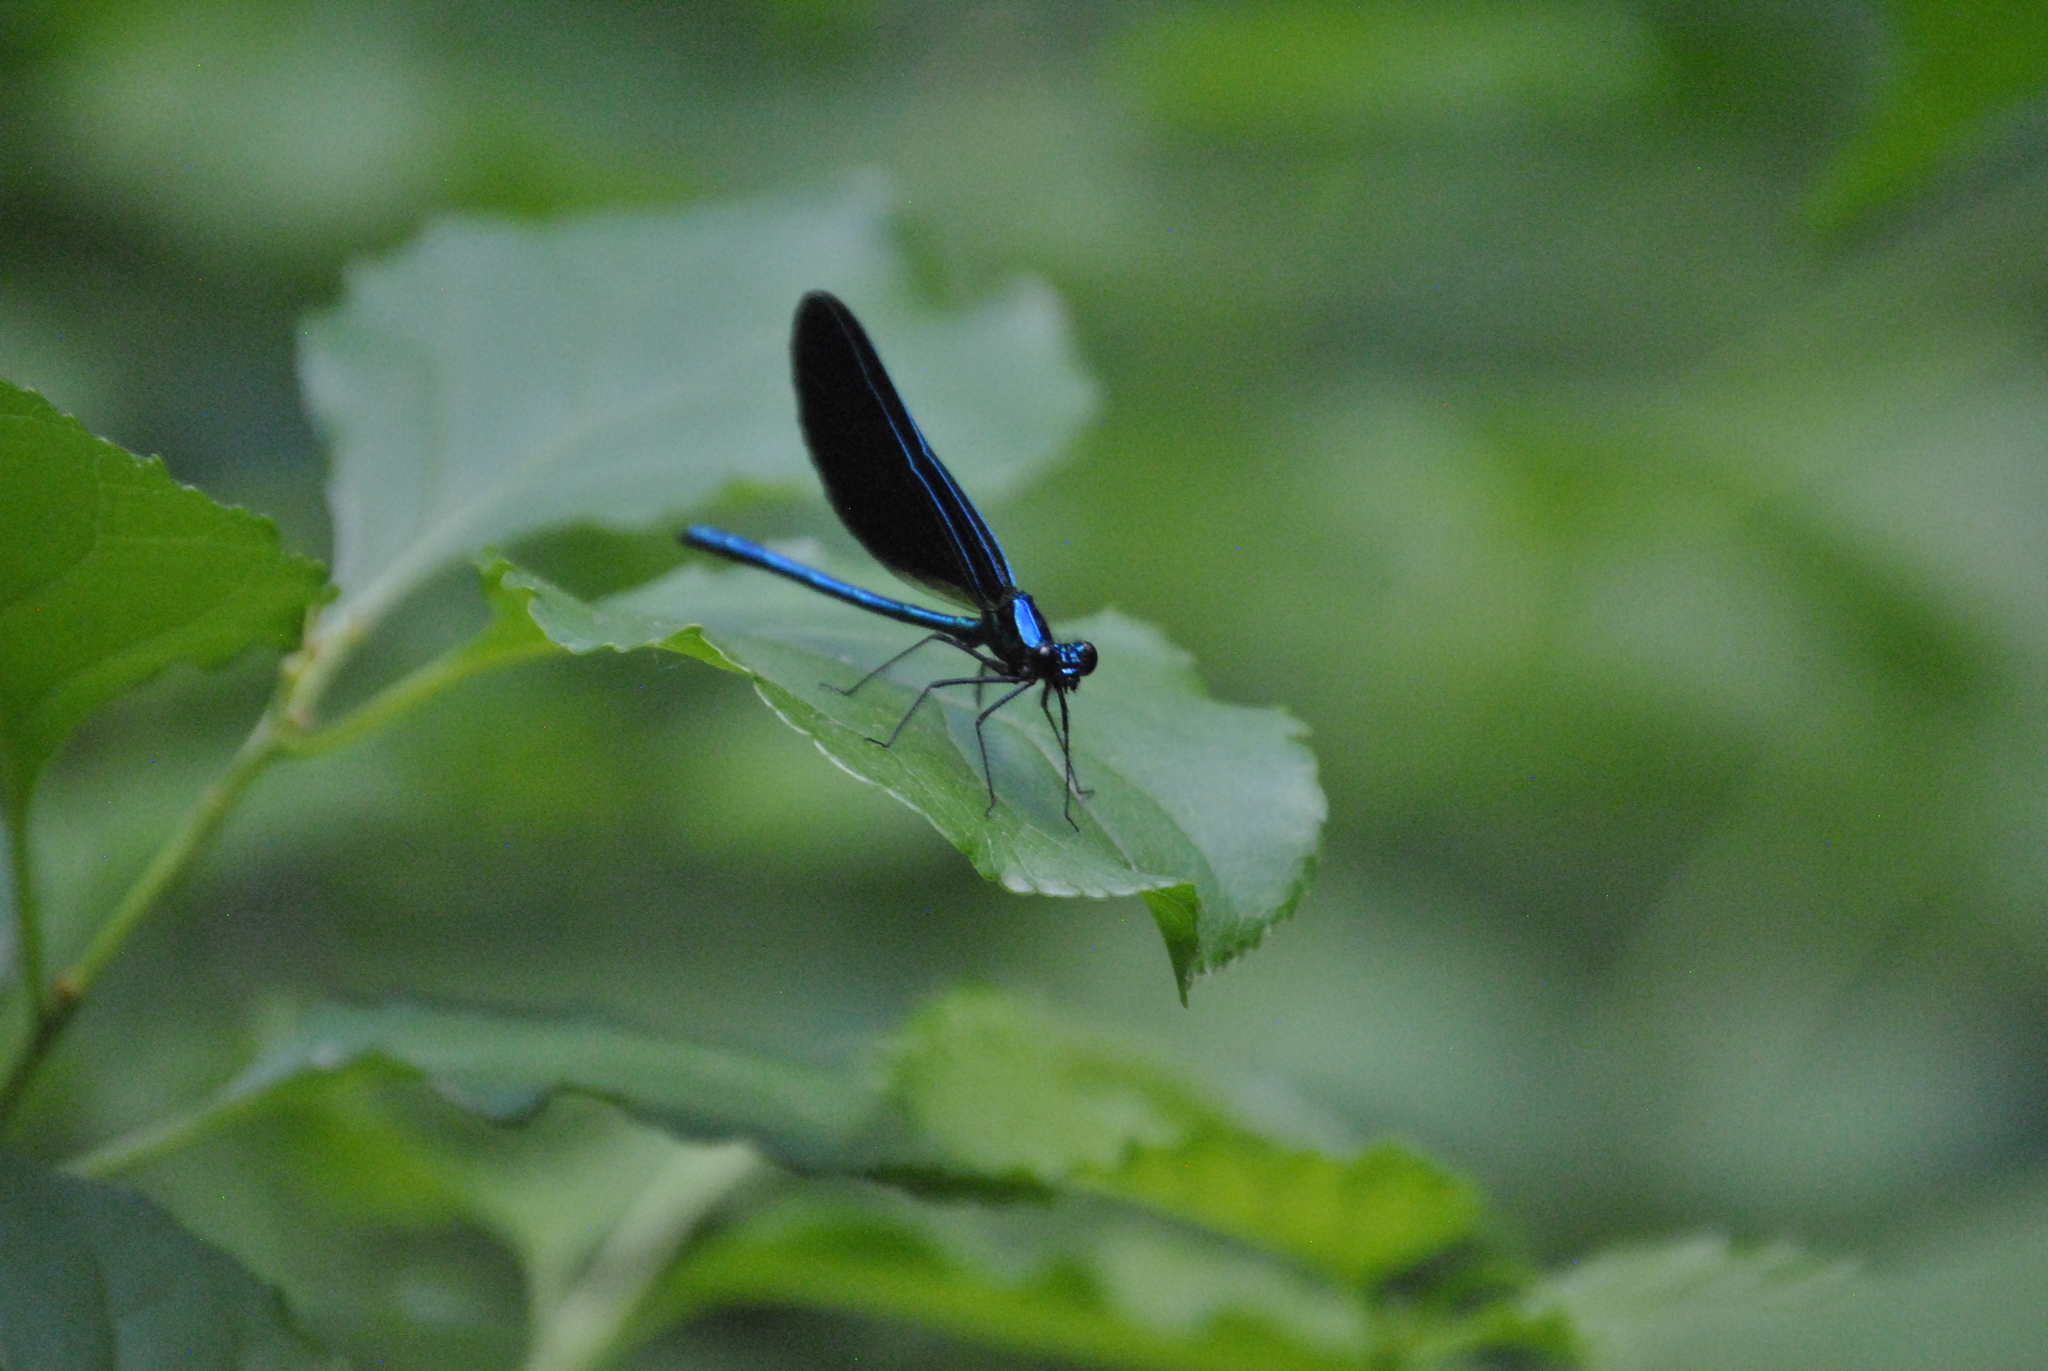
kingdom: Animalia
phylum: Arthropoda
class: Insecta
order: Odonata
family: Calopterygidae
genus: Calopteryx
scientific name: Calopteryx maculata
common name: Ebony jewelwing
